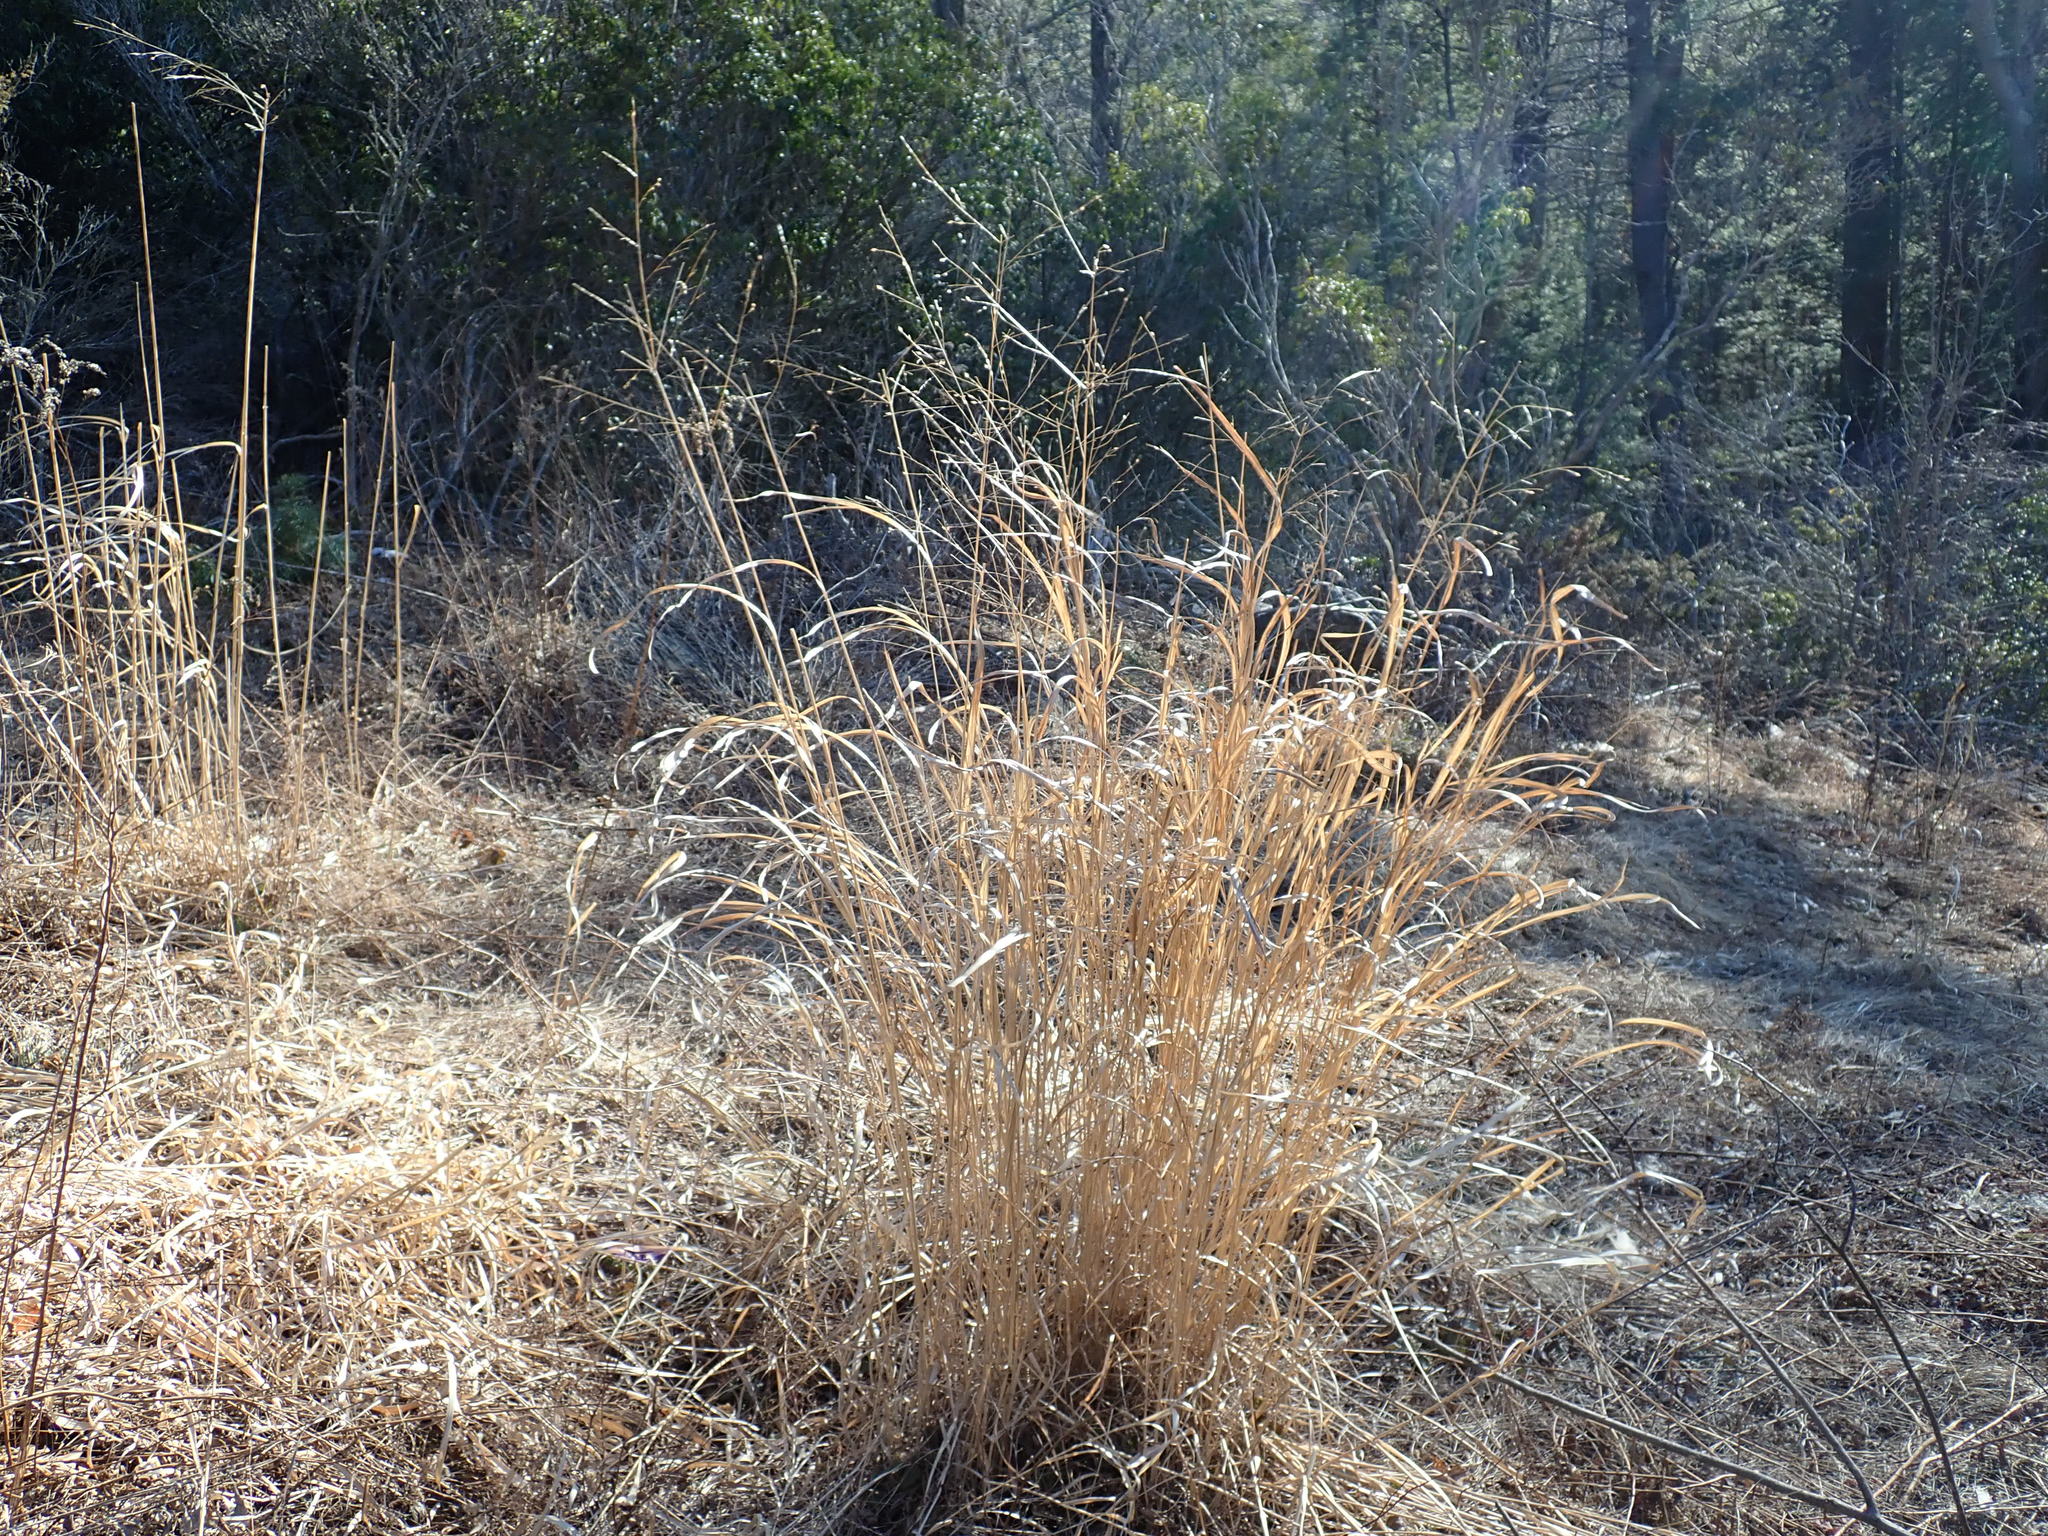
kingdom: Plantae
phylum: Tracheophyta
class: Liliopsida
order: Poales
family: Poaceae
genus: Panicum
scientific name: Panicum virgatum
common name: Switchgrass
